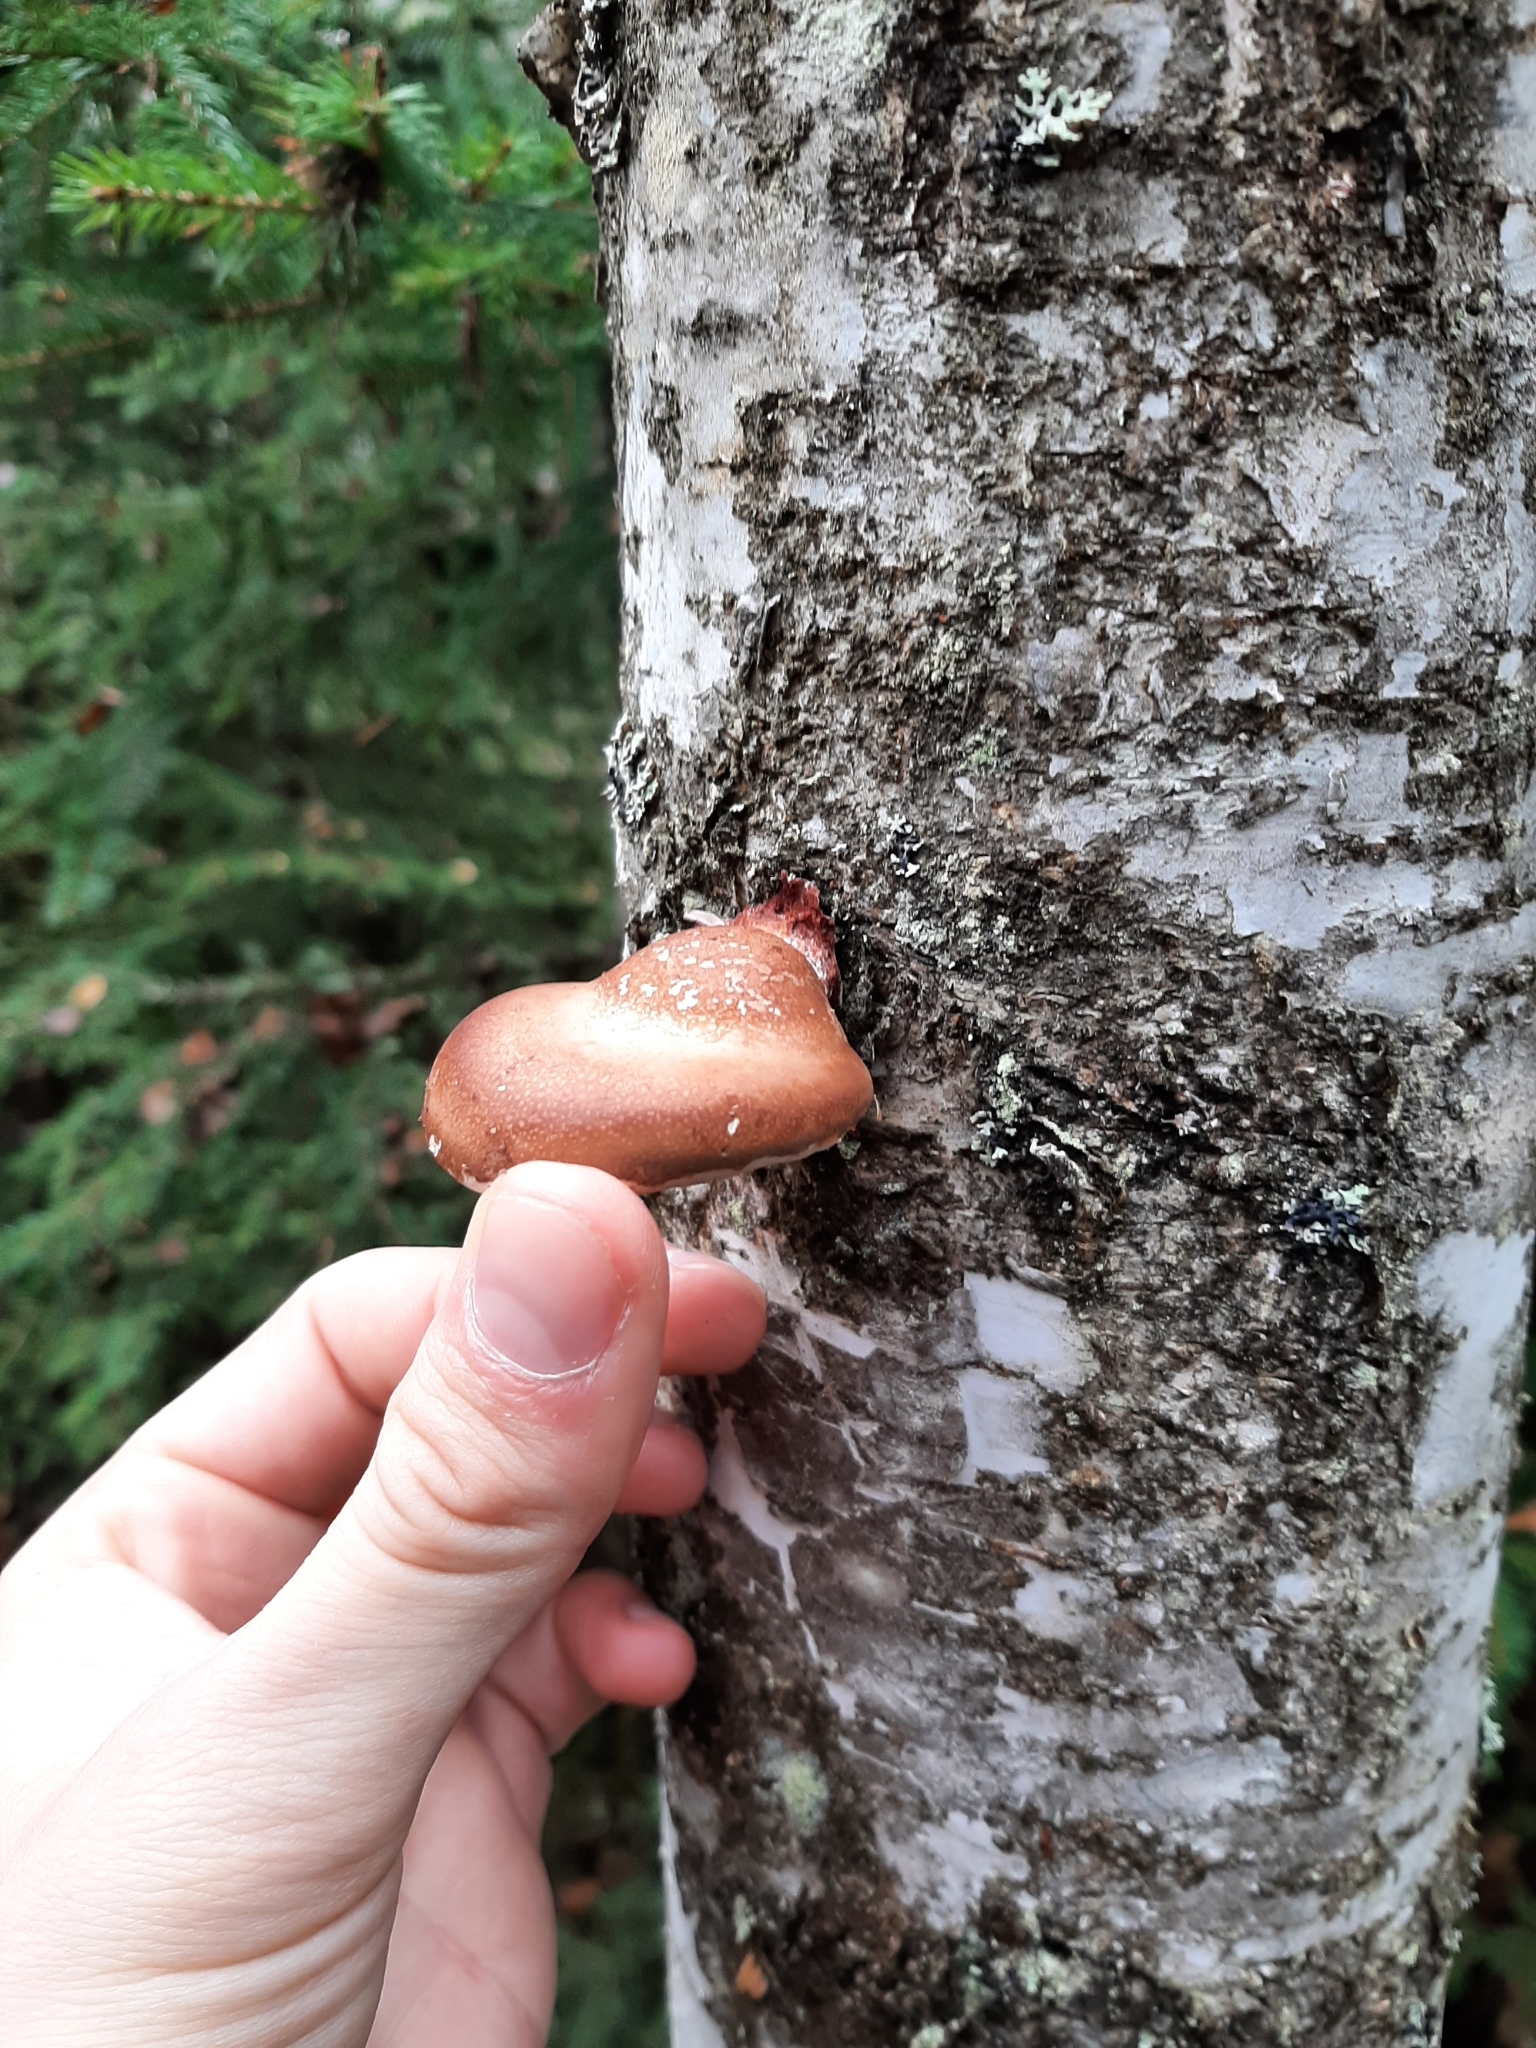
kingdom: Fungi
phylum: Basidiomycota
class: Agaricomycetes
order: Polyporales
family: Fomitopsidaceae
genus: Fomitopsis
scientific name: Fomitopsis betulina
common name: Birch polypore
